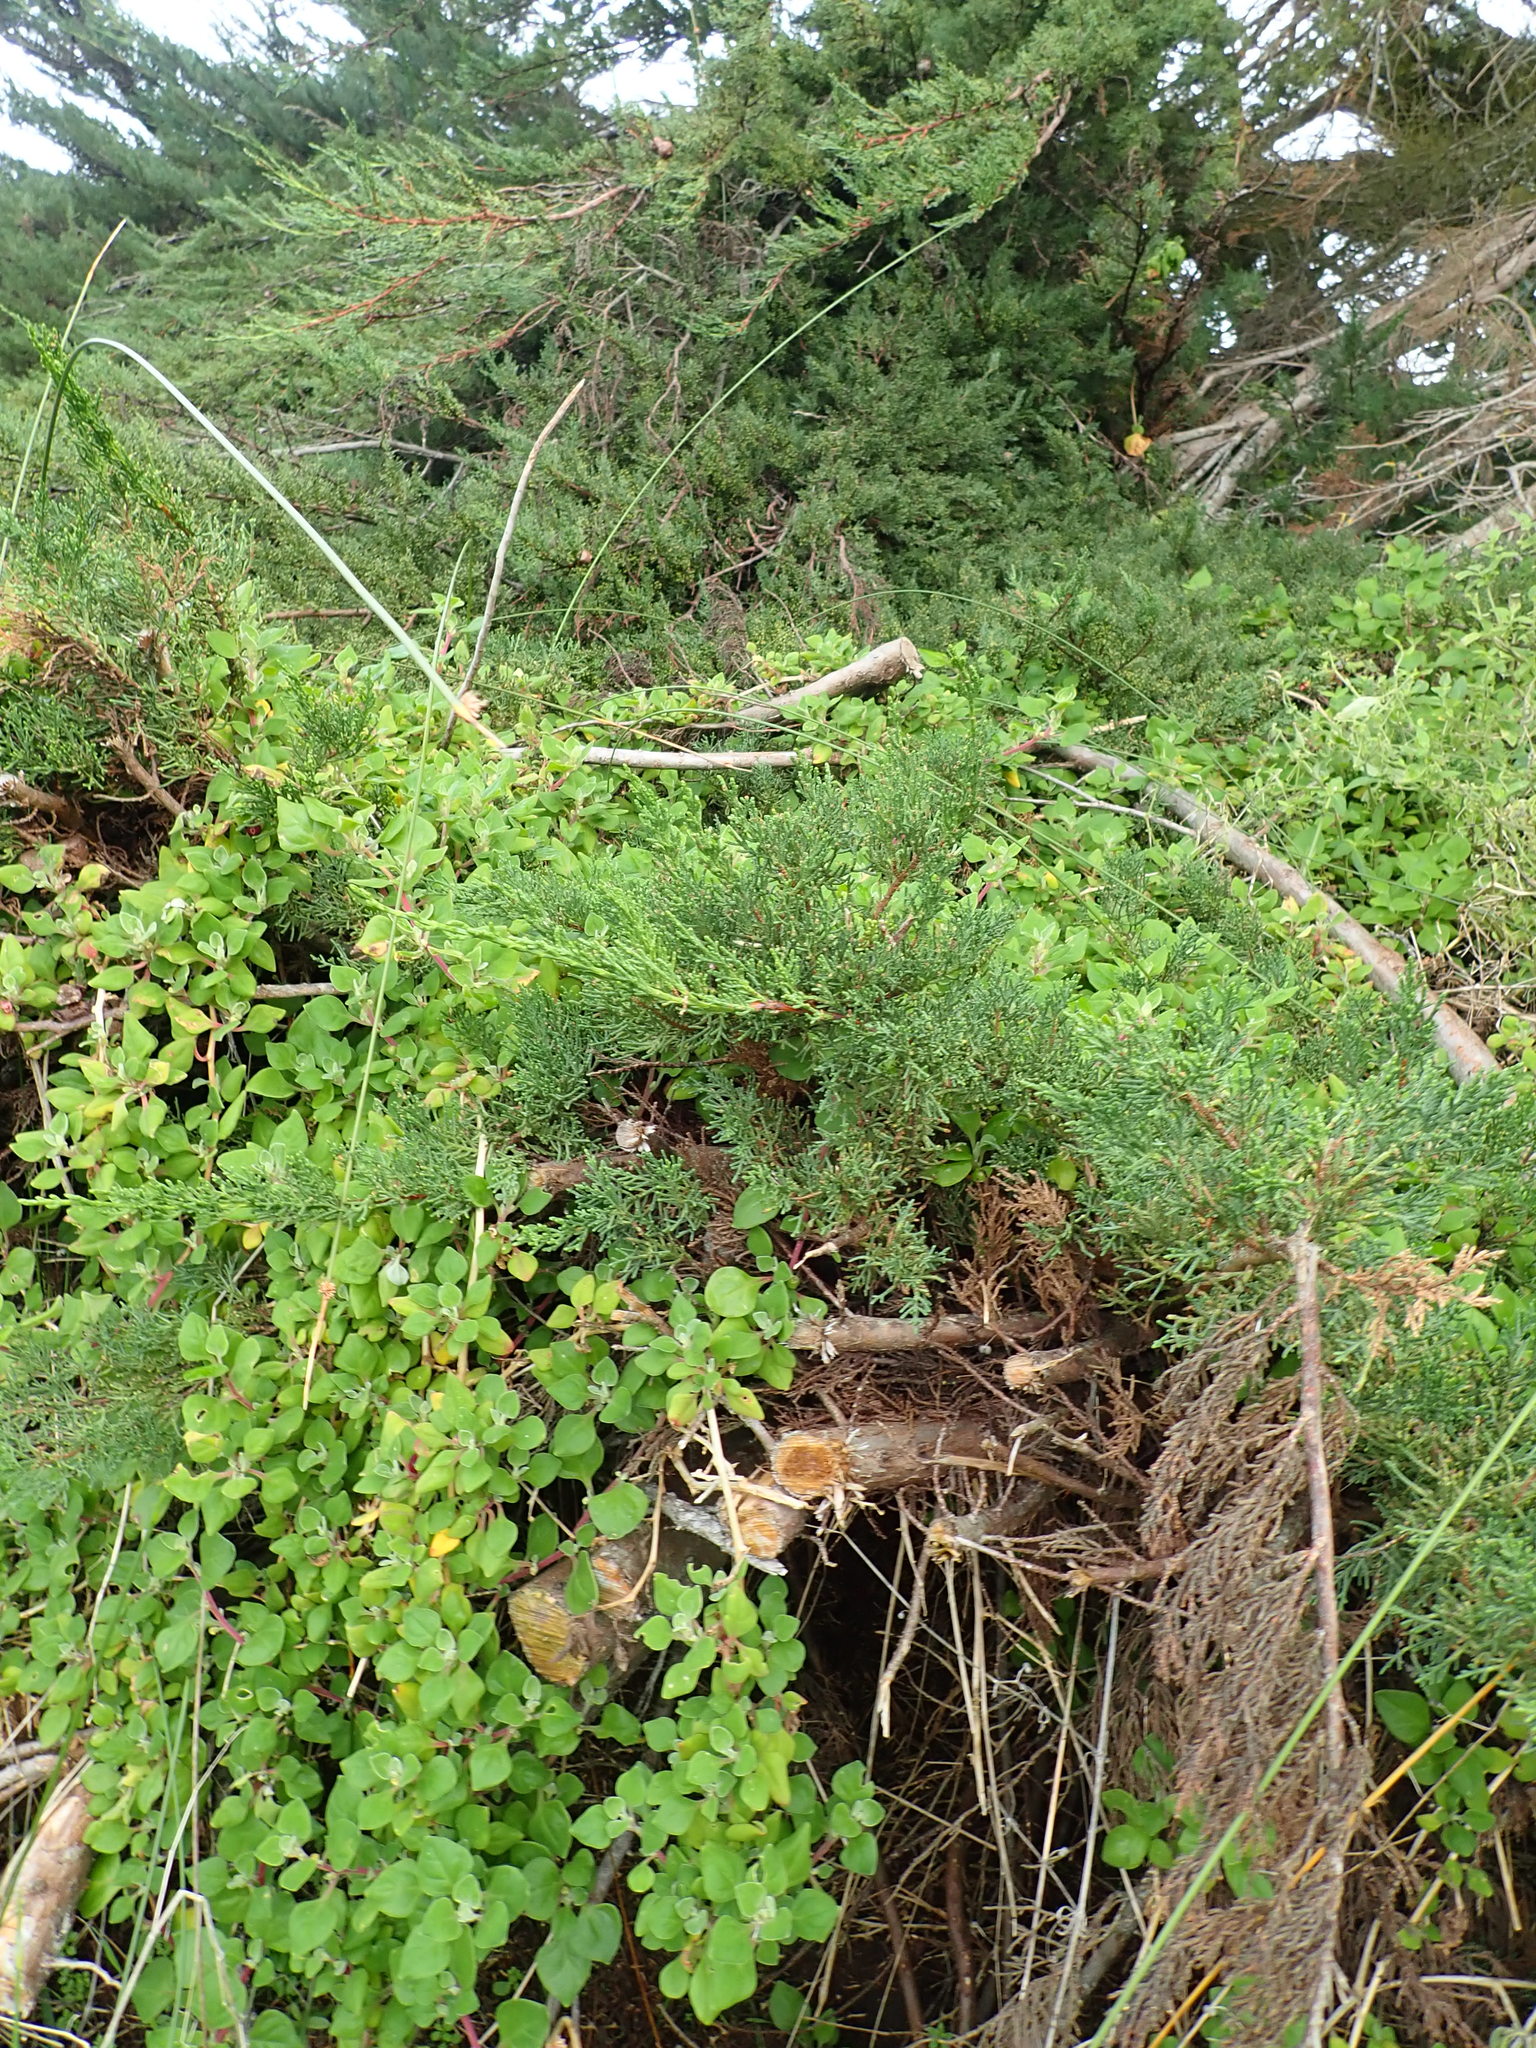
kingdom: Plantae
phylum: Tracheophyta
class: Magnoliopsida
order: Caryophyllales
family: Aizoaceae
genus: Tetragonia
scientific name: Tetragonia implexicoma
